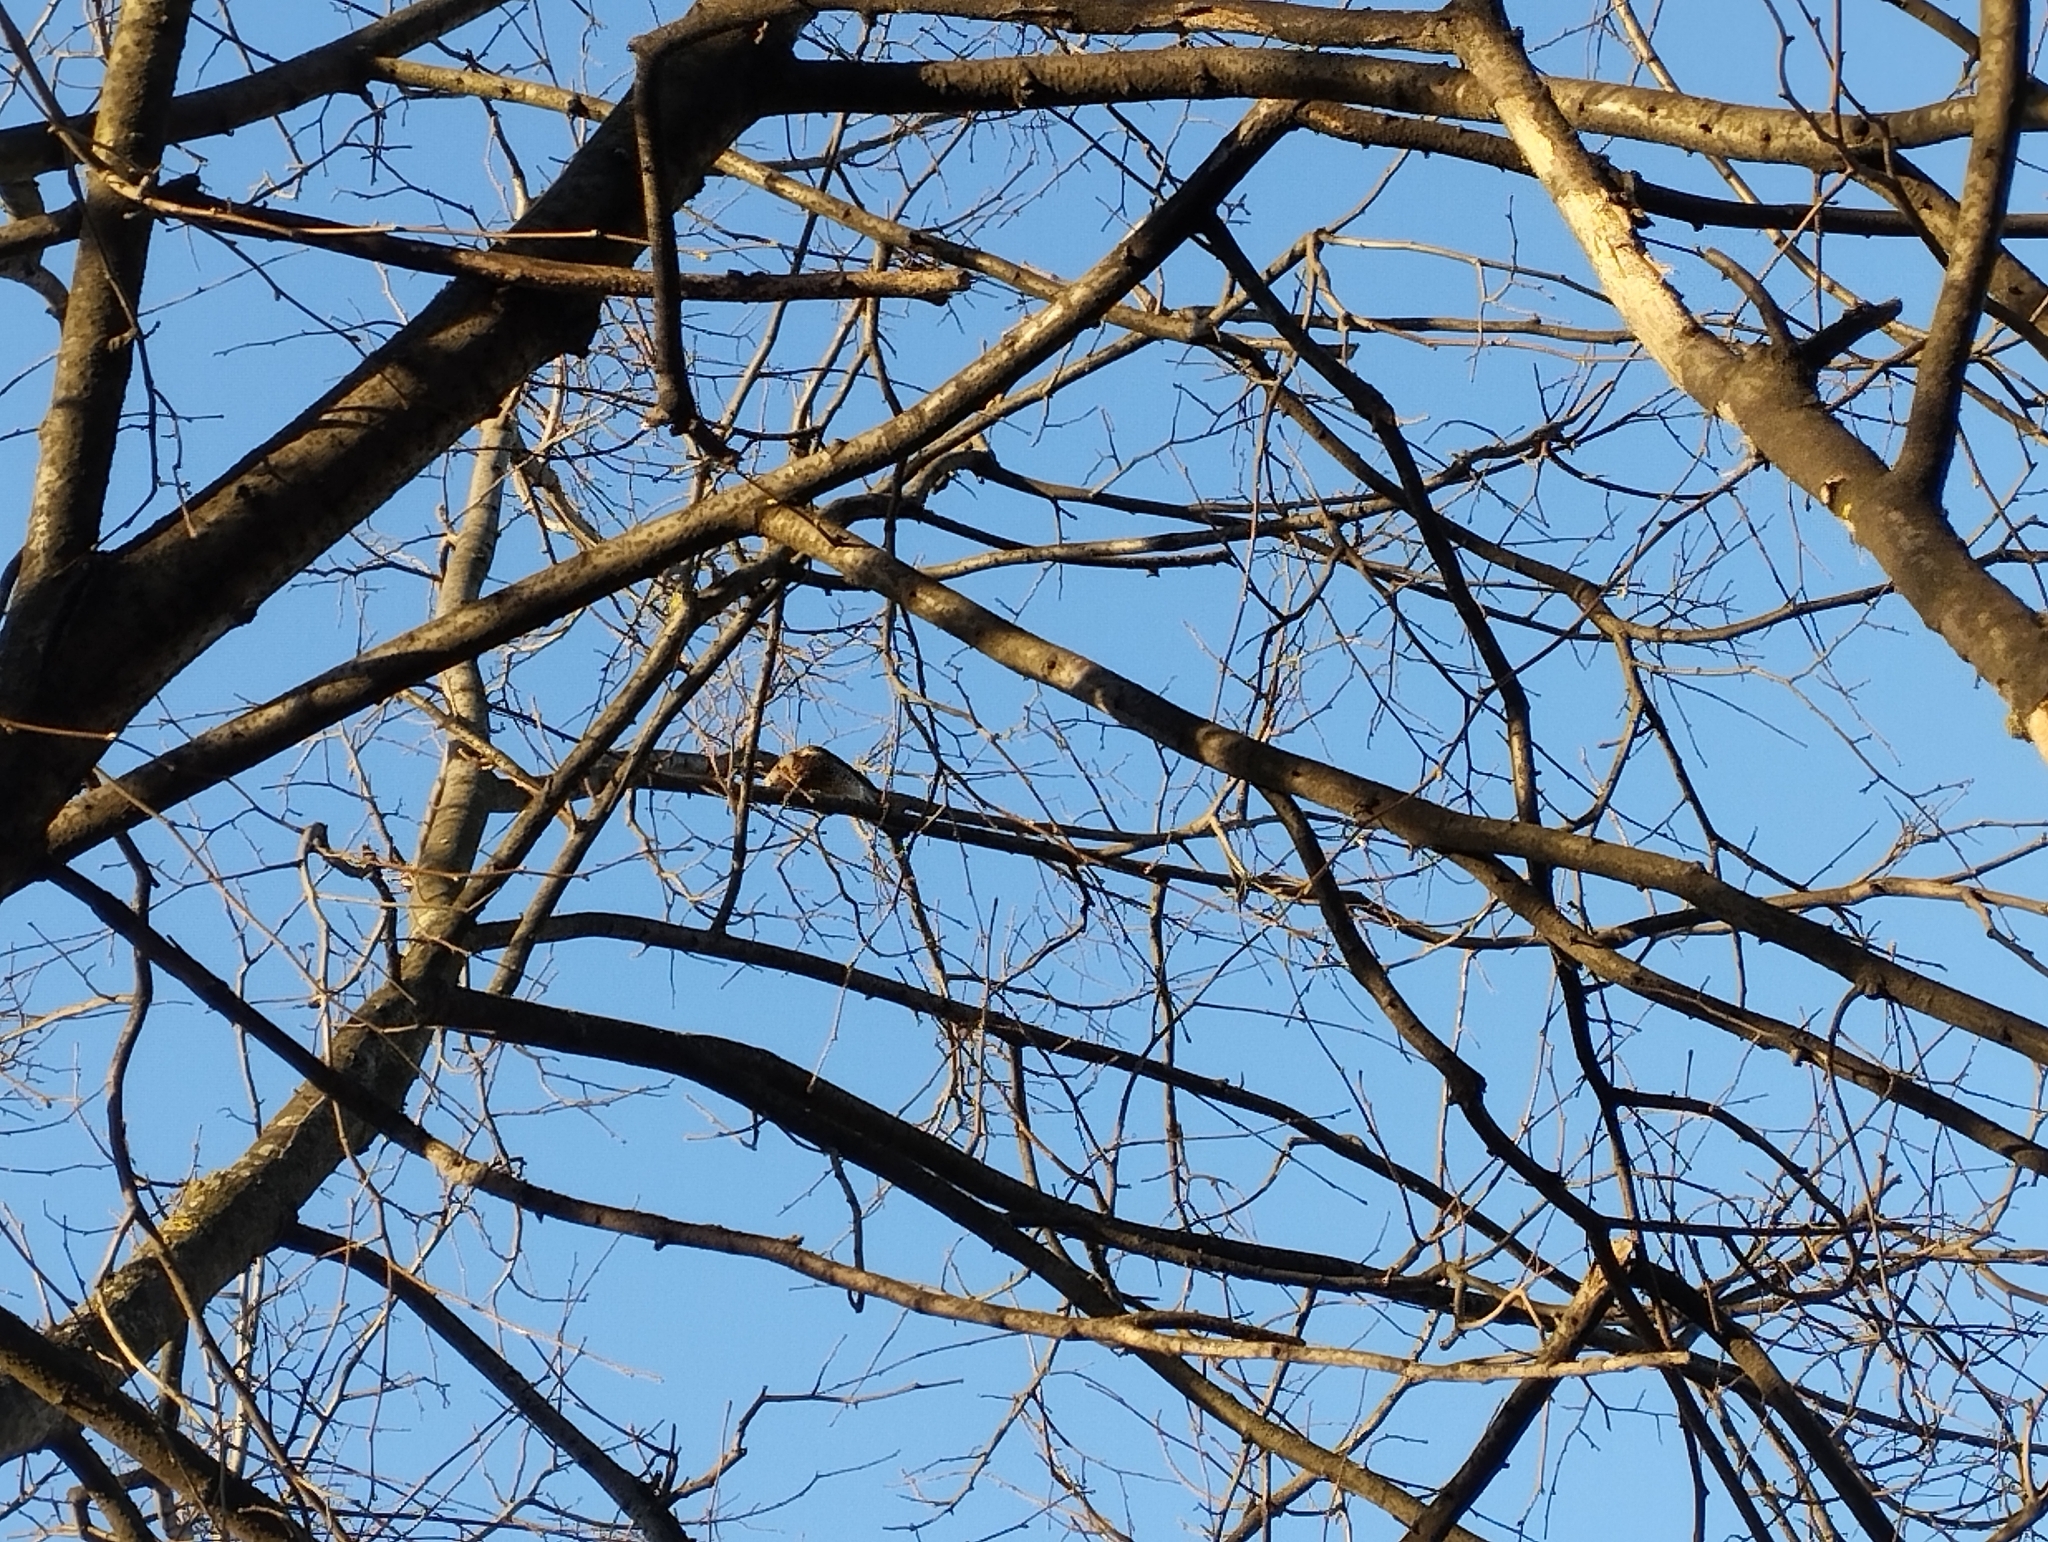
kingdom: Animalia
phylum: Chordata
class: Aves
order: Passeriformes
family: Turdidae
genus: Turdus
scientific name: Turdus pilaris
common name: Fieldfare
